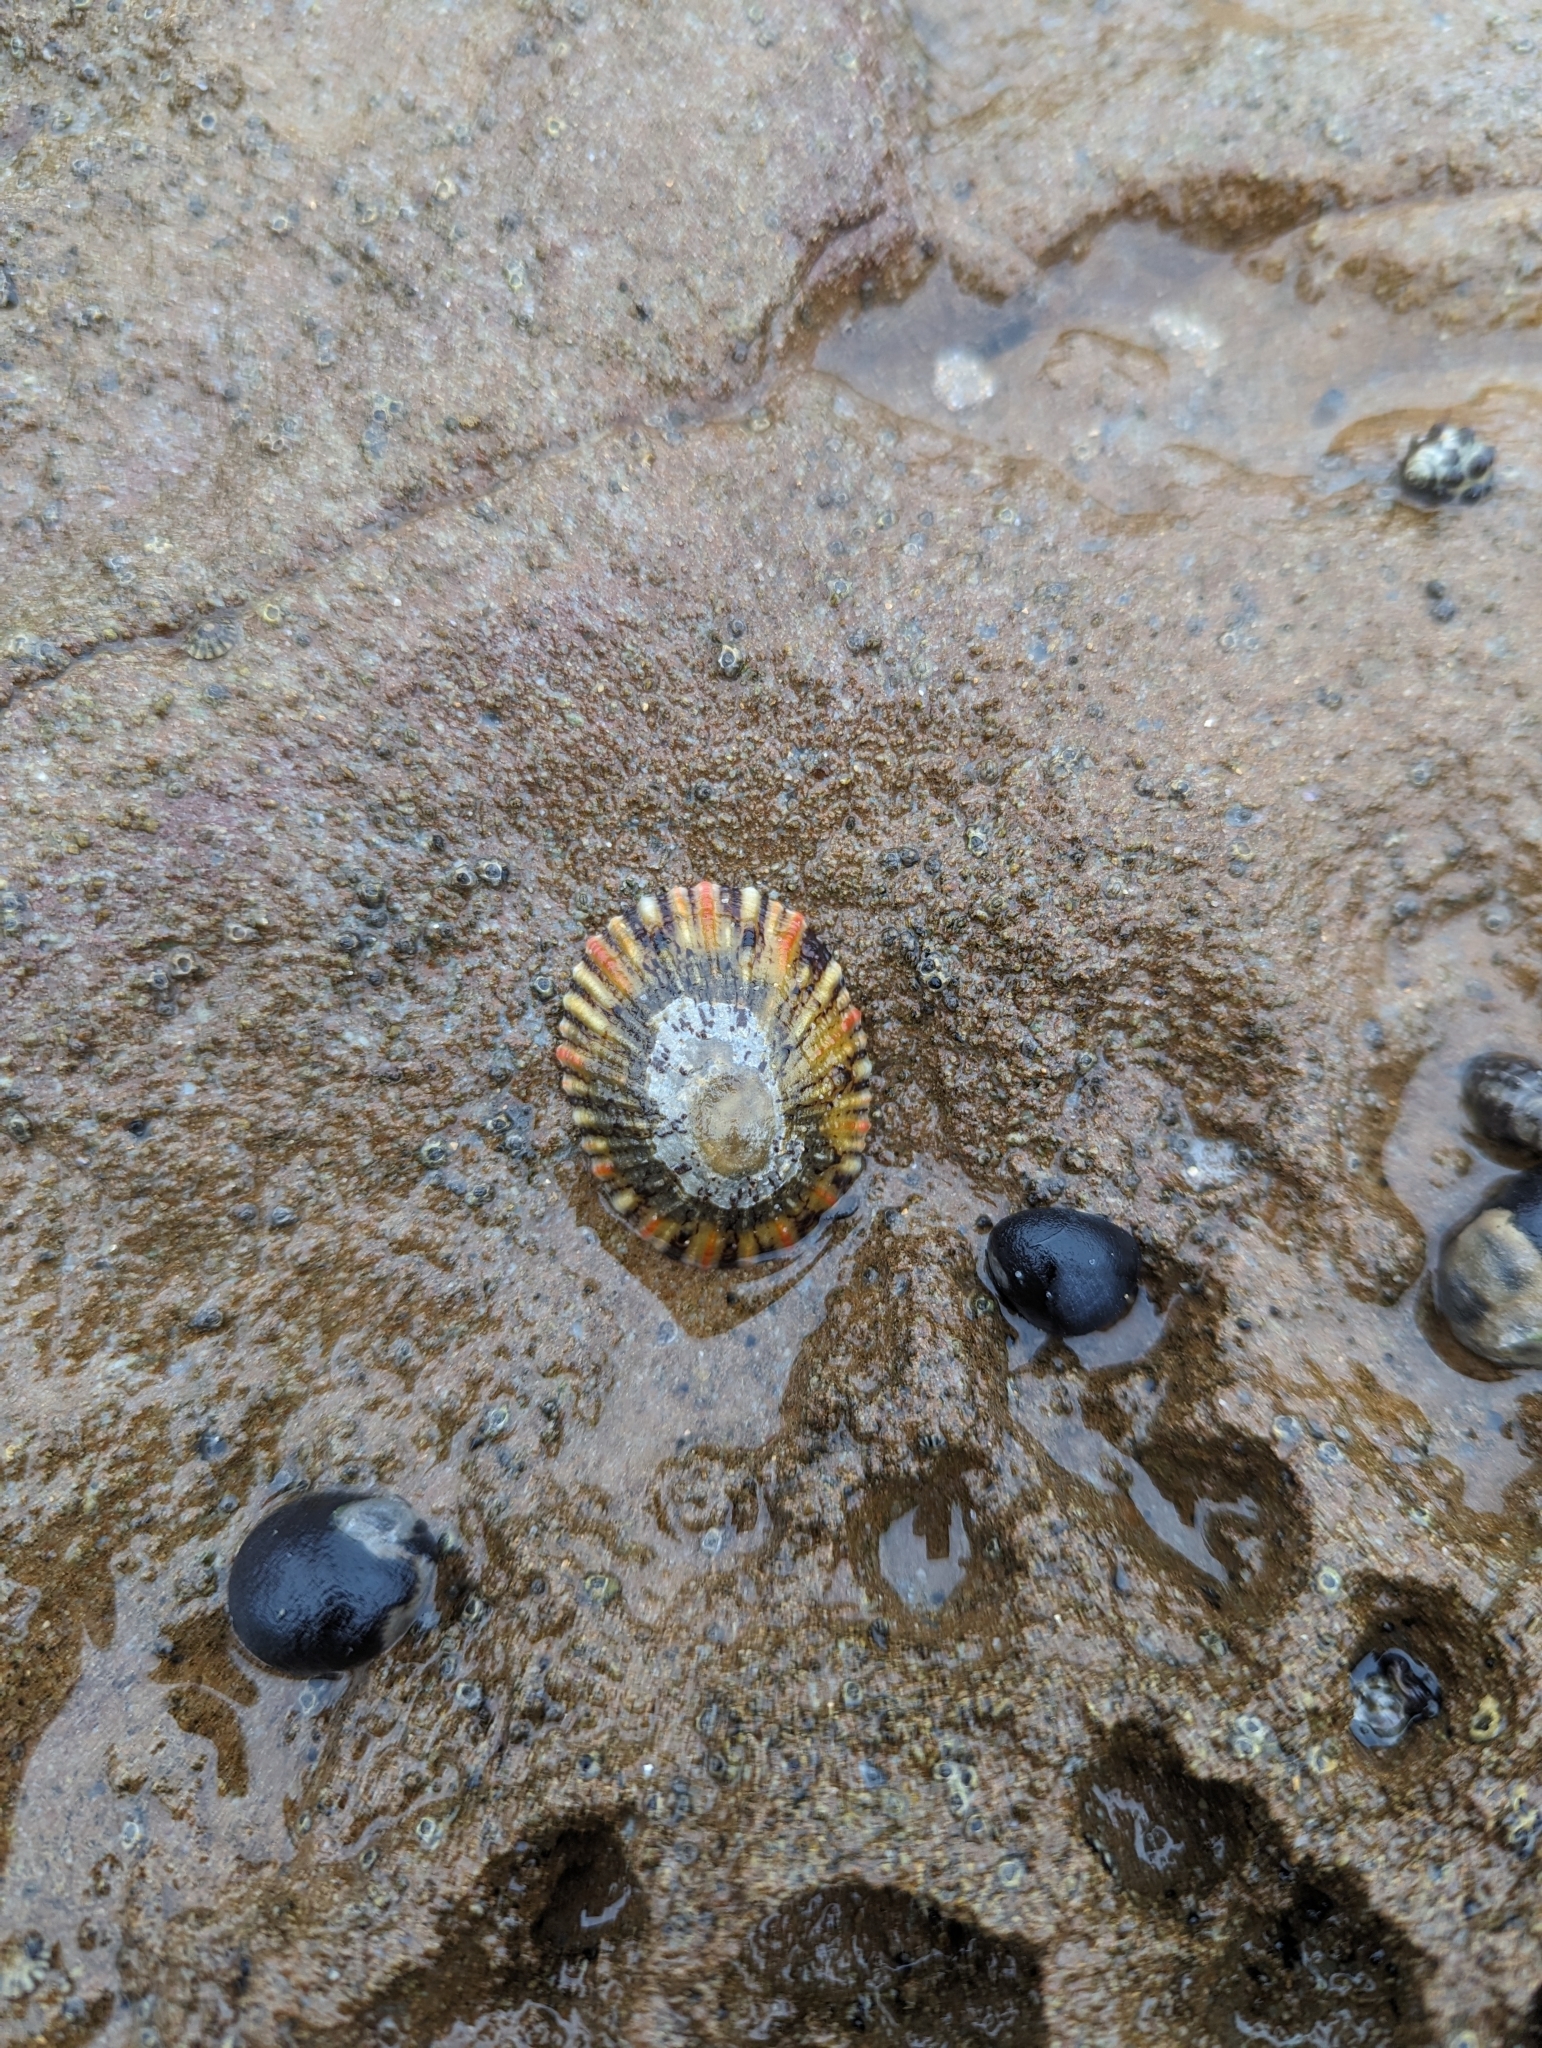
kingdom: Animalia
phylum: Mollusca
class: Gastropoda
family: Nacellidae
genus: Cellana
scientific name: Cellana tramoserica
